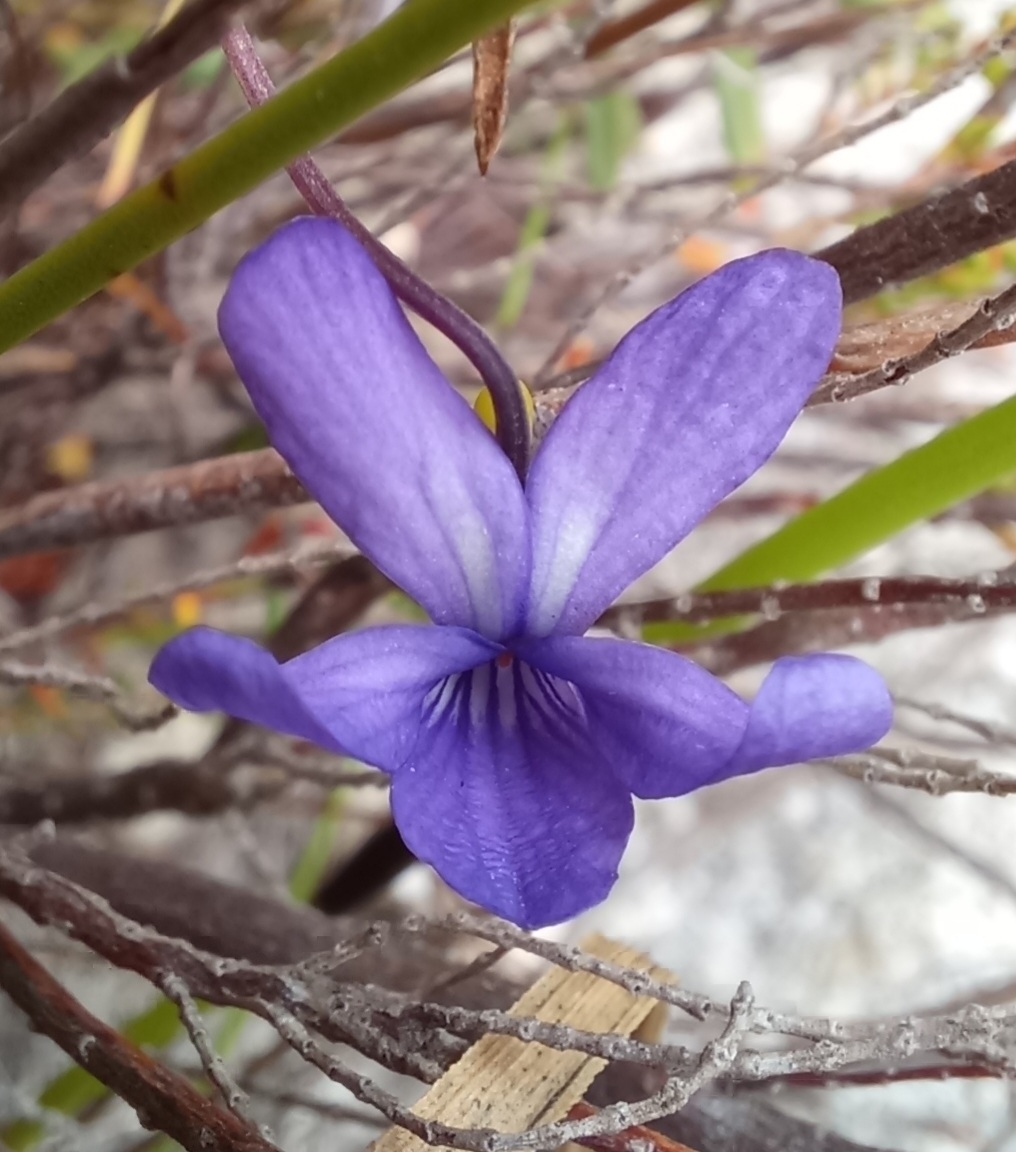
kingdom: Plantae
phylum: Tracheophyta
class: Magnoliopsida
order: Malpighiales
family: Violaceae
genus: Viola
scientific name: Viola decumbens
